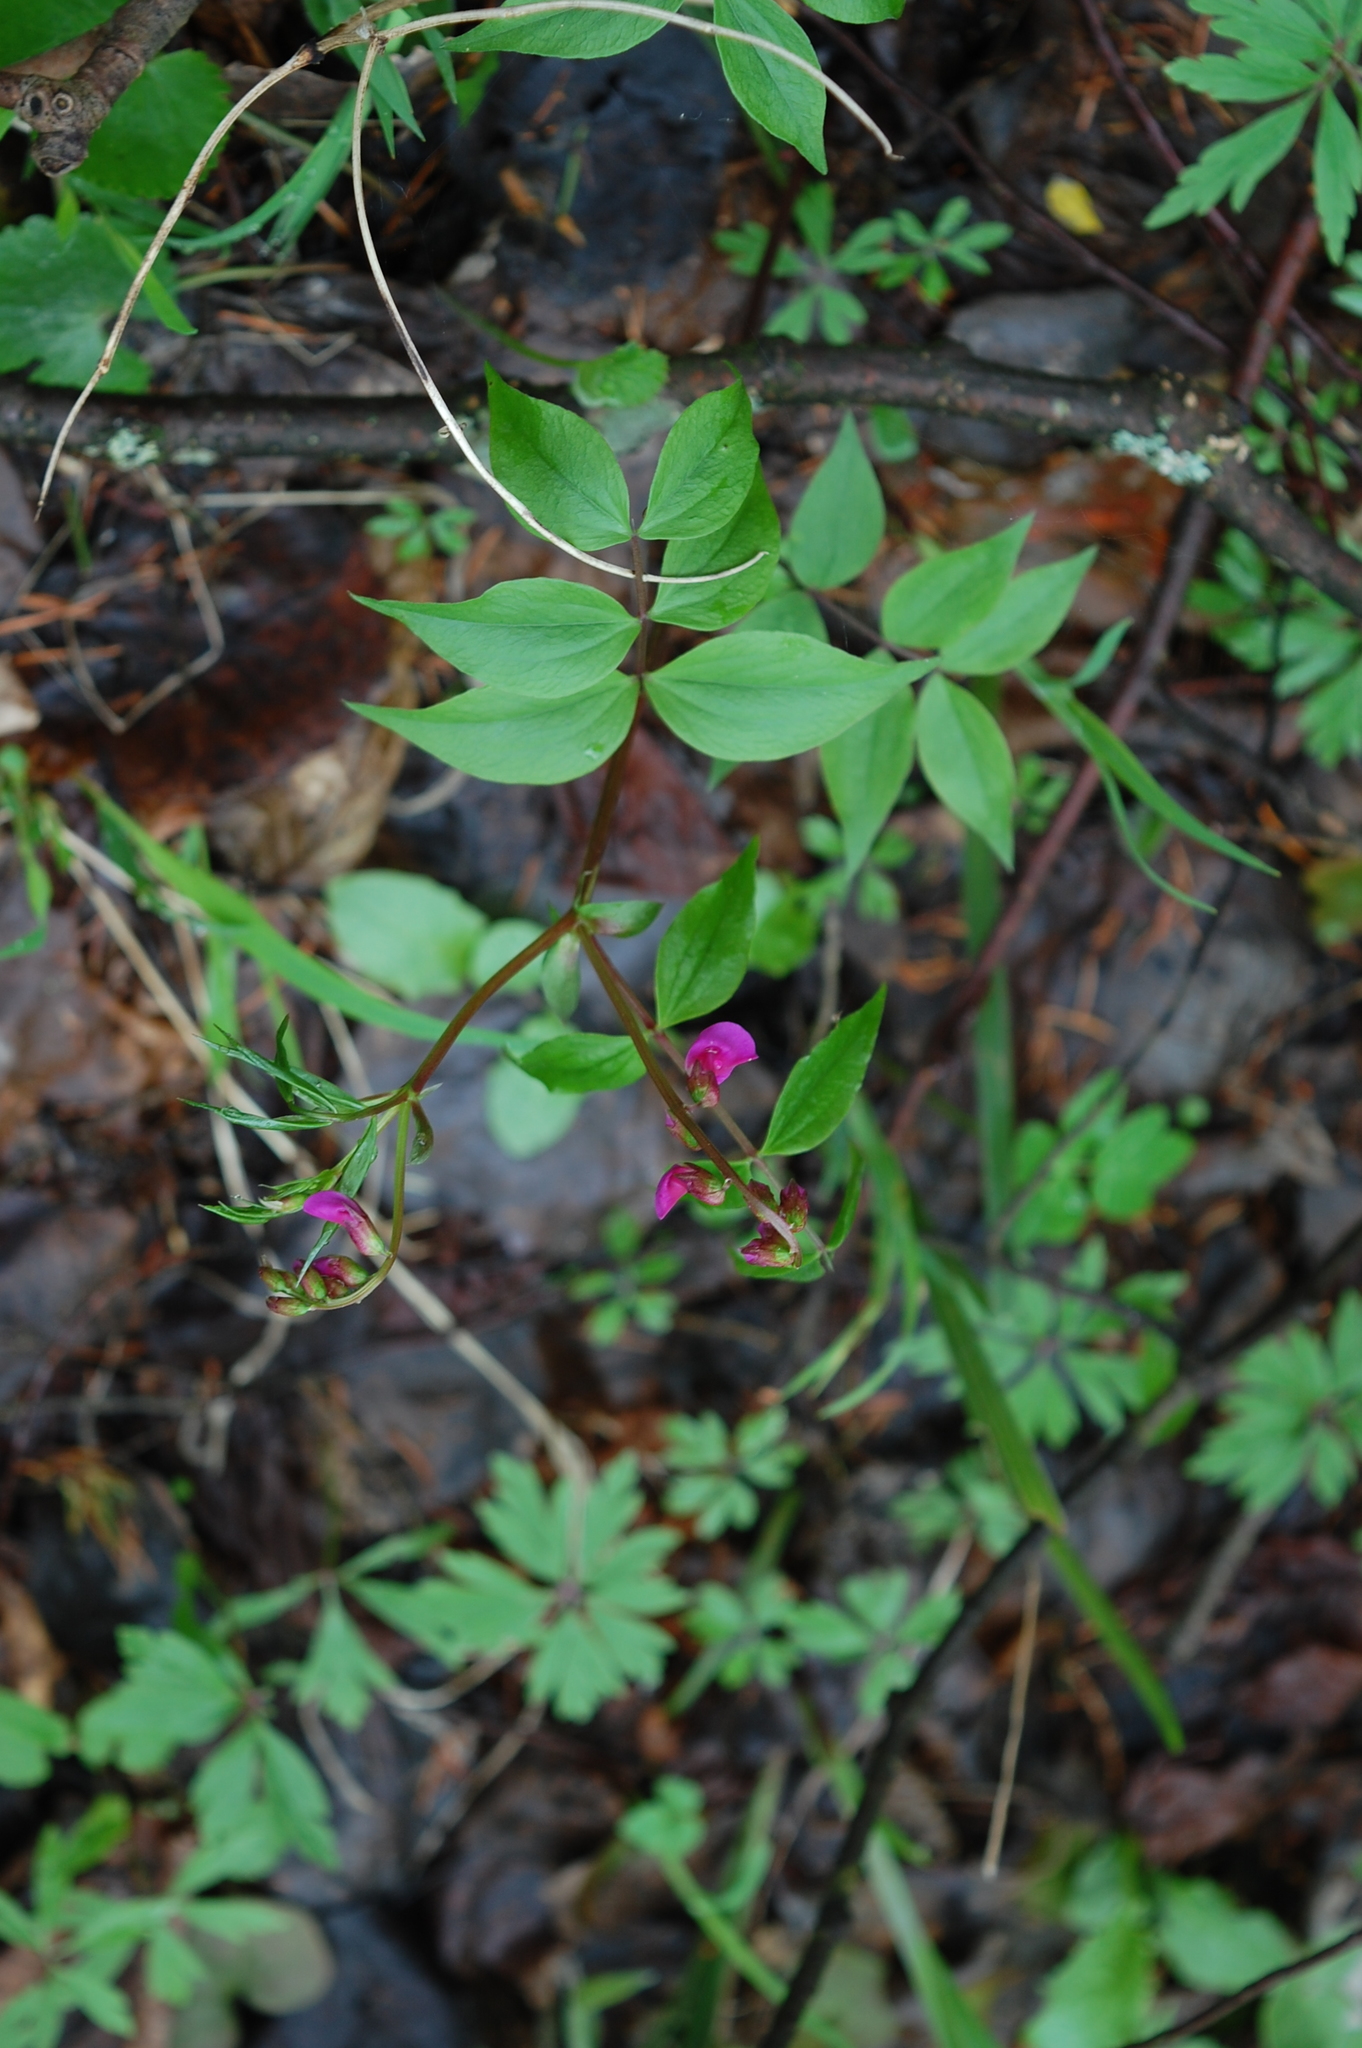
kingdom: Plantae
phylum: Tracheophyta
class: Magnoliopsida
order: Fabales
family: Fabaceae
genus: Lathyrus
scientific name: Lathyrus vernus
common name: Spring pea
